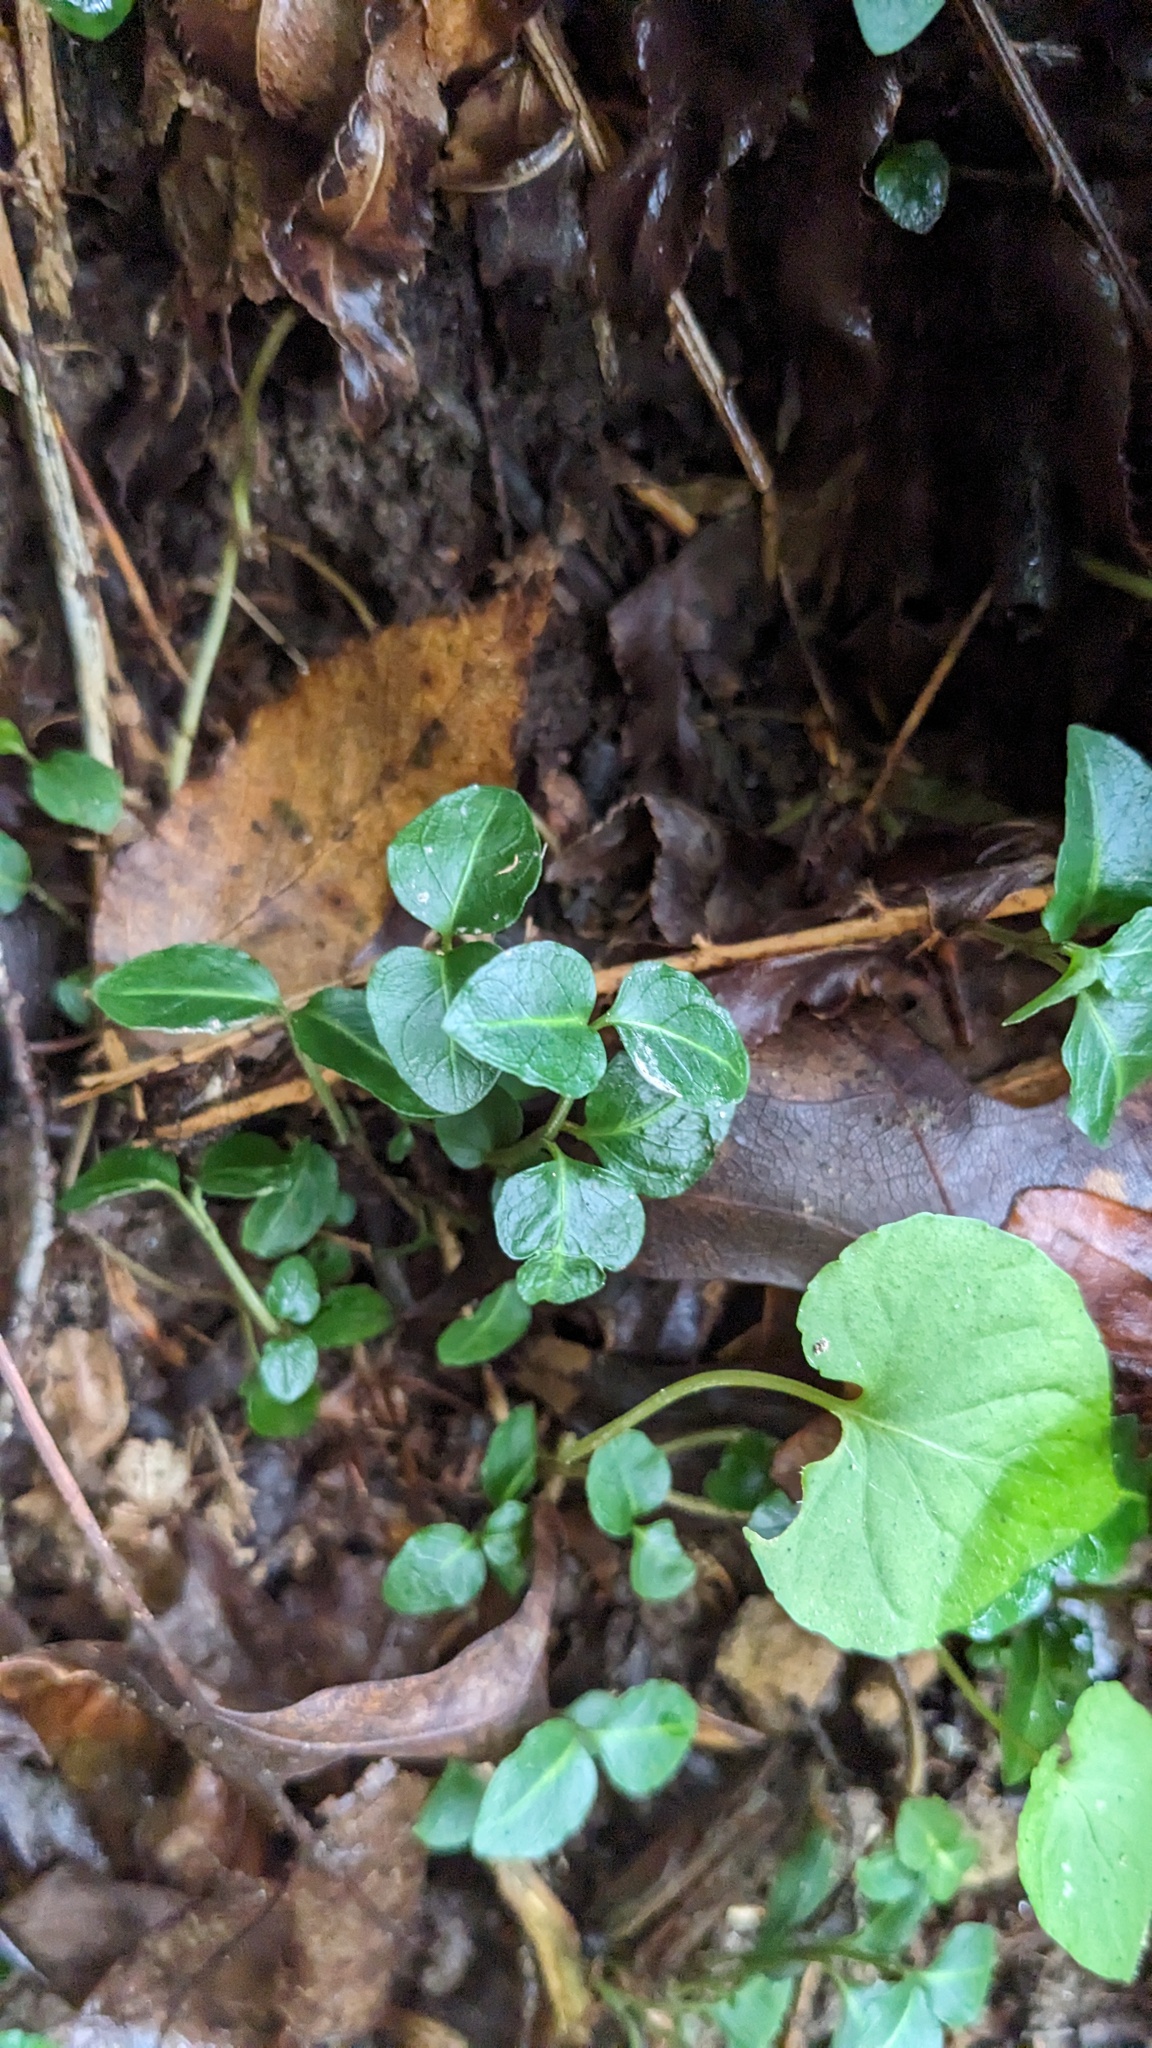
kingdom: Plantae
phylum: Tracheophyta
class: Magnoliopsida
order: Gentianales
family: Rubiaceae
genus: Mitchella
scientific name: Mitchella repens
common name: Partridge-berry
